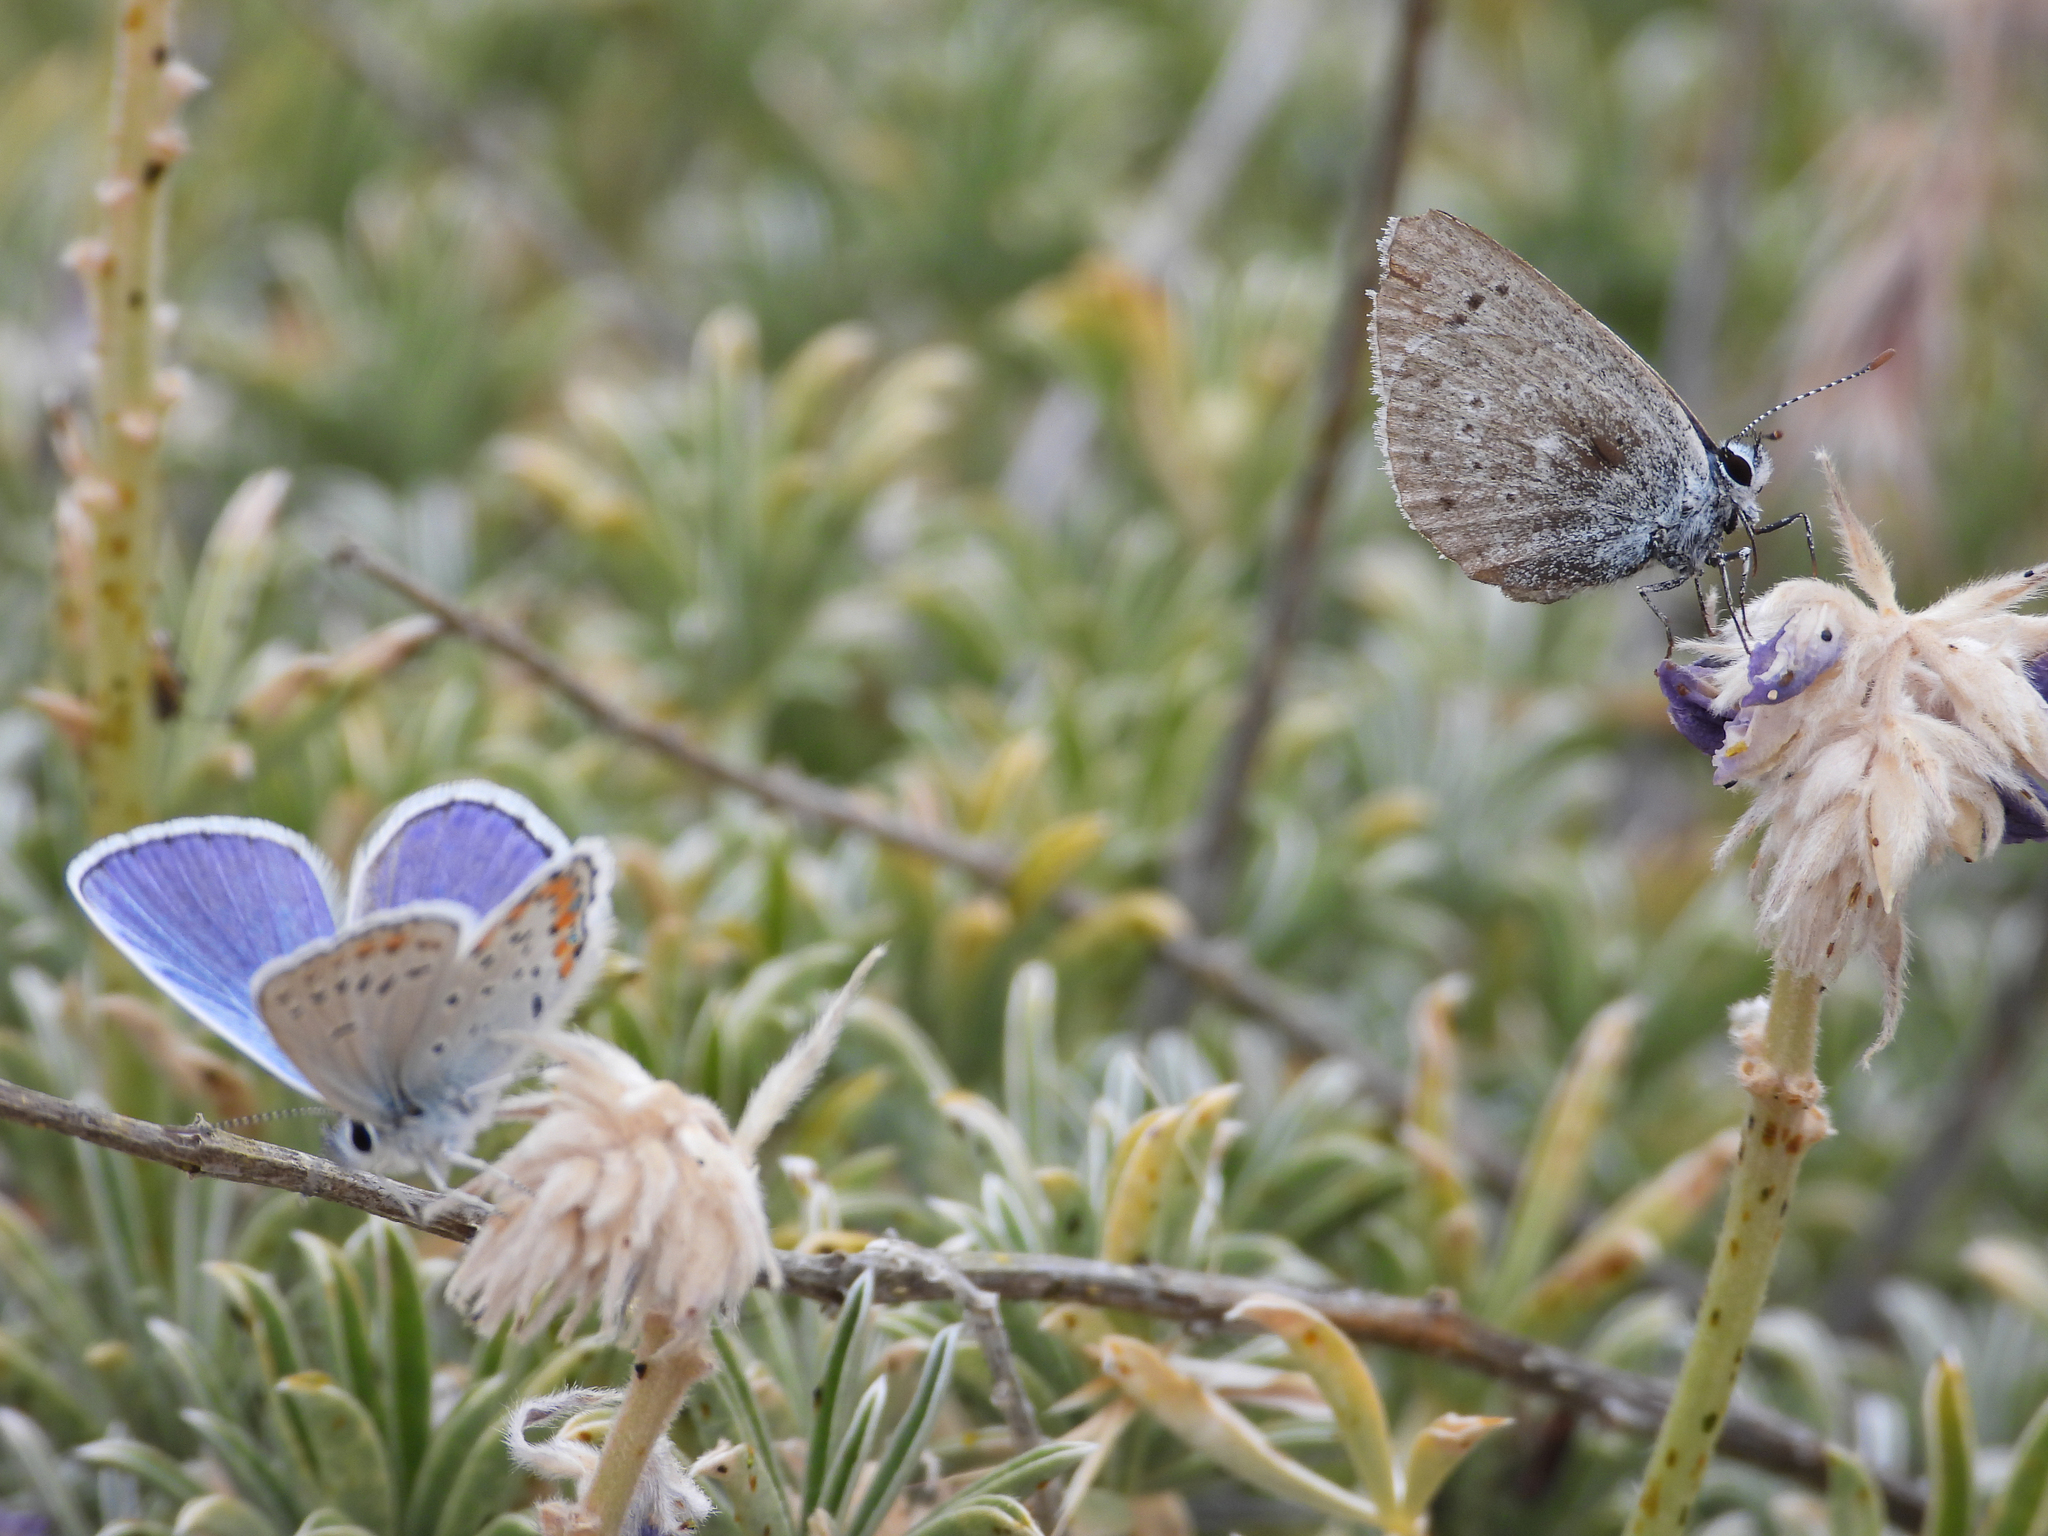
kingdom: Animalia
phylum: Arthropoda
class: Insecta
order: Lepidoptera
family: Lycaenidae
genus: Icaricia
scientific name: Icaricia icarioides
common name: Boisduval's blue
